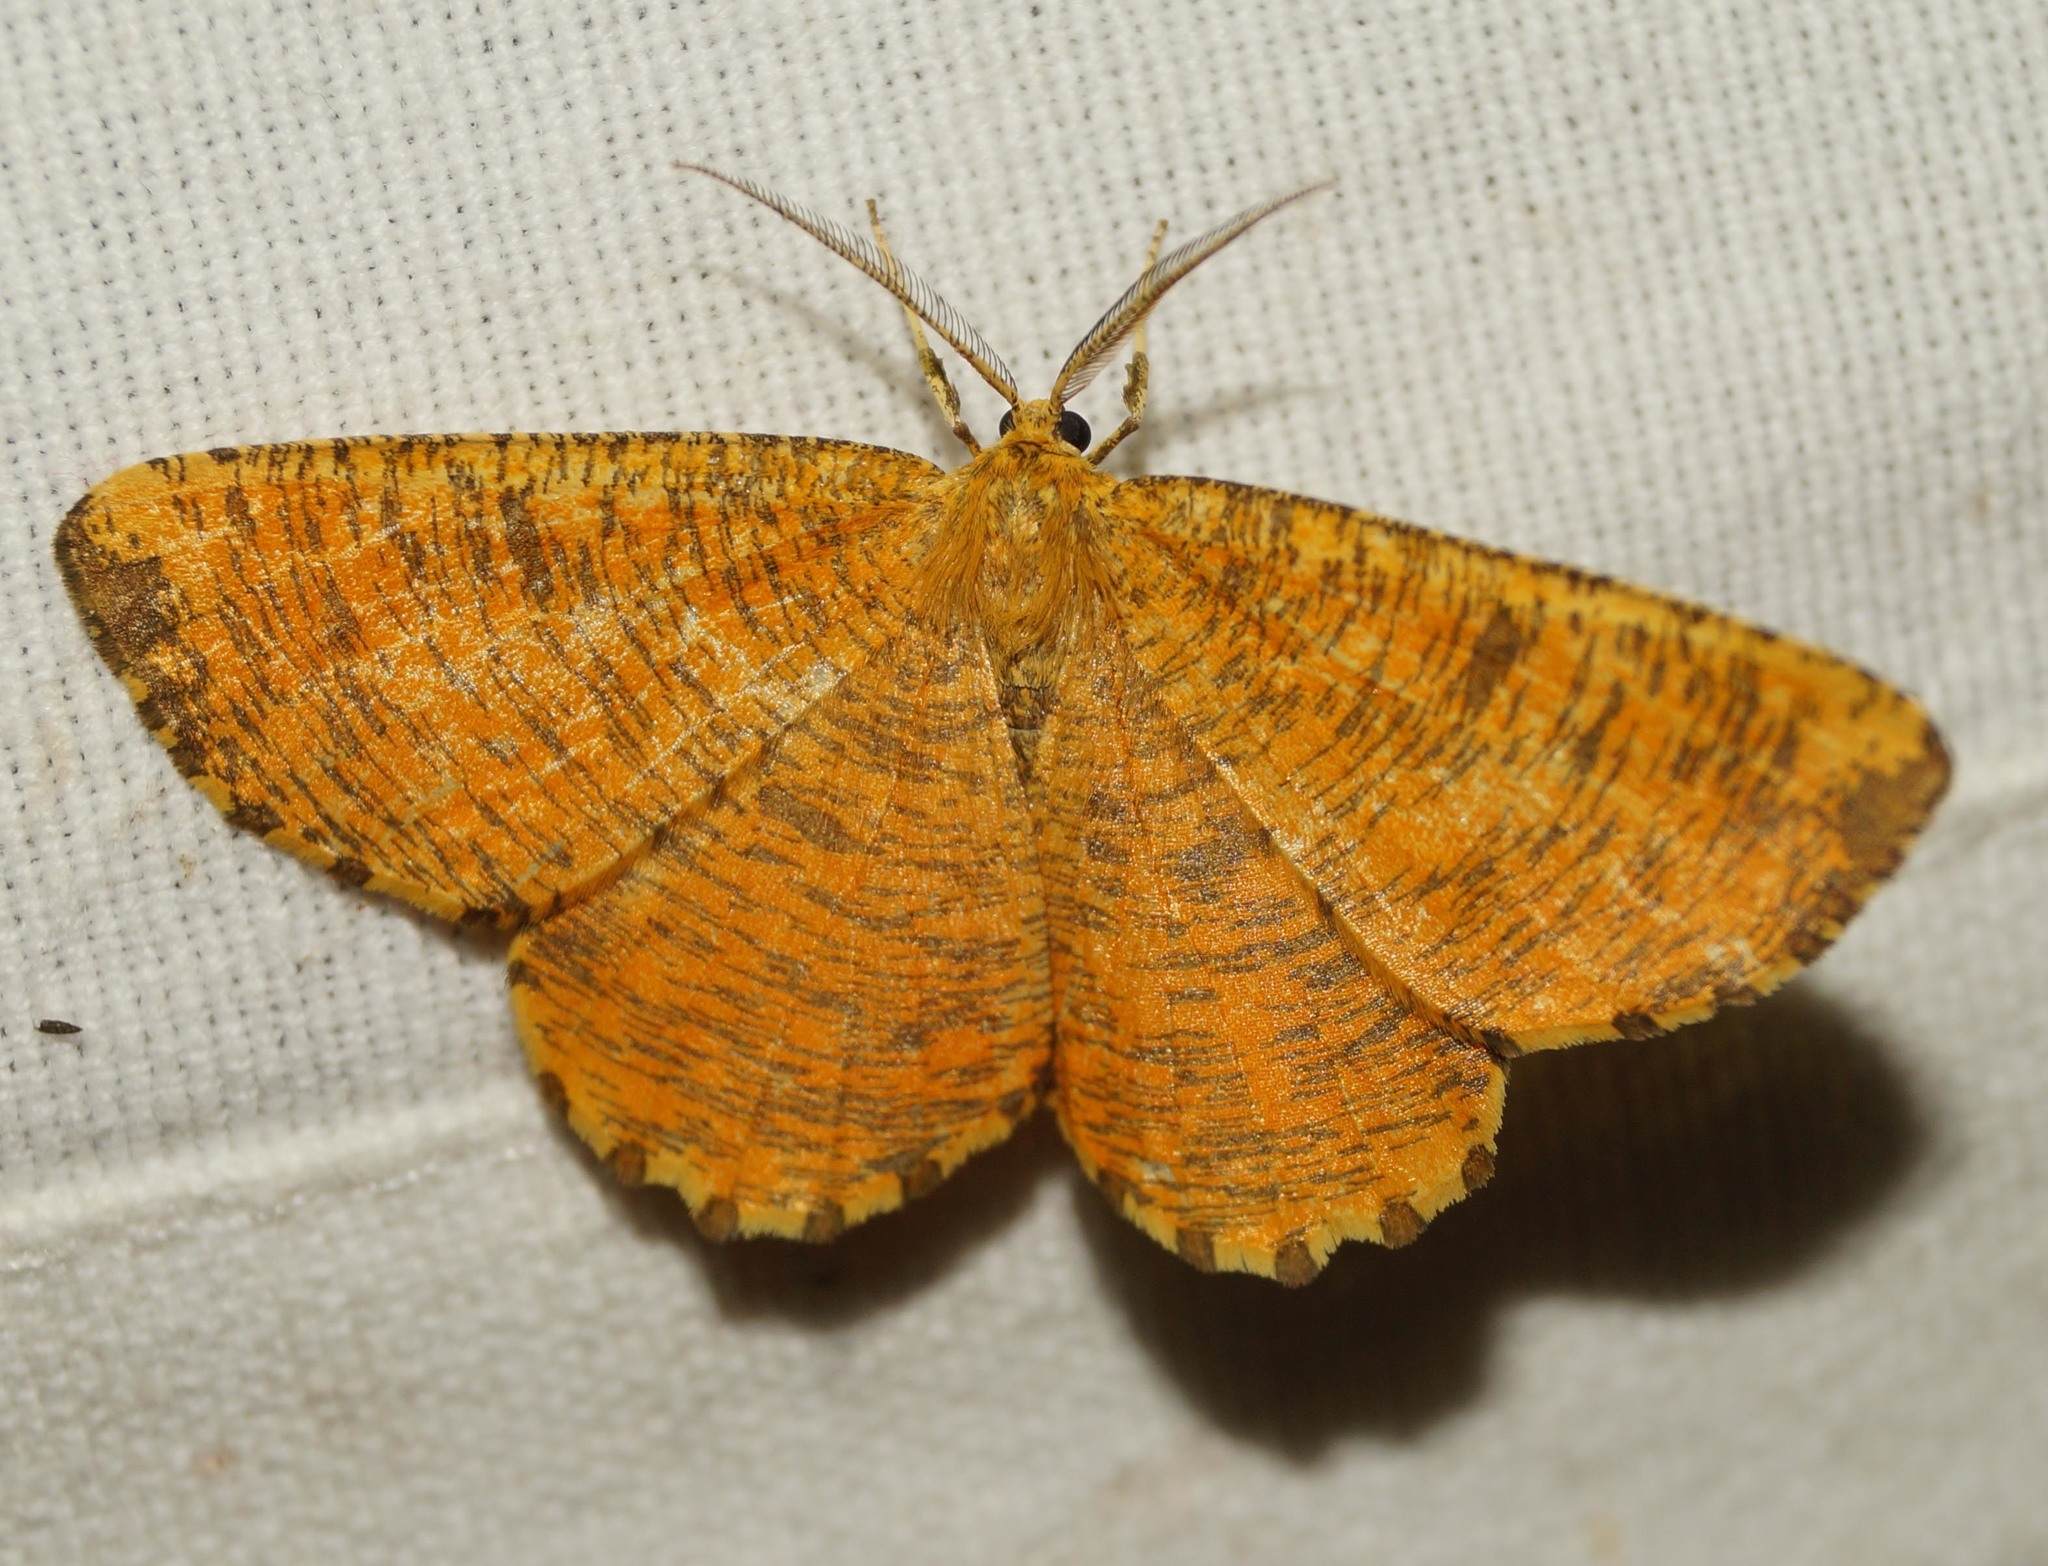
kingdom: Animalia
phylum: Arthropoda
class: Insecta
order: Lepidoptera
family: Geometridae
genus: Angerona
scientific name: Angerona prunaria
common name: Orange moth
